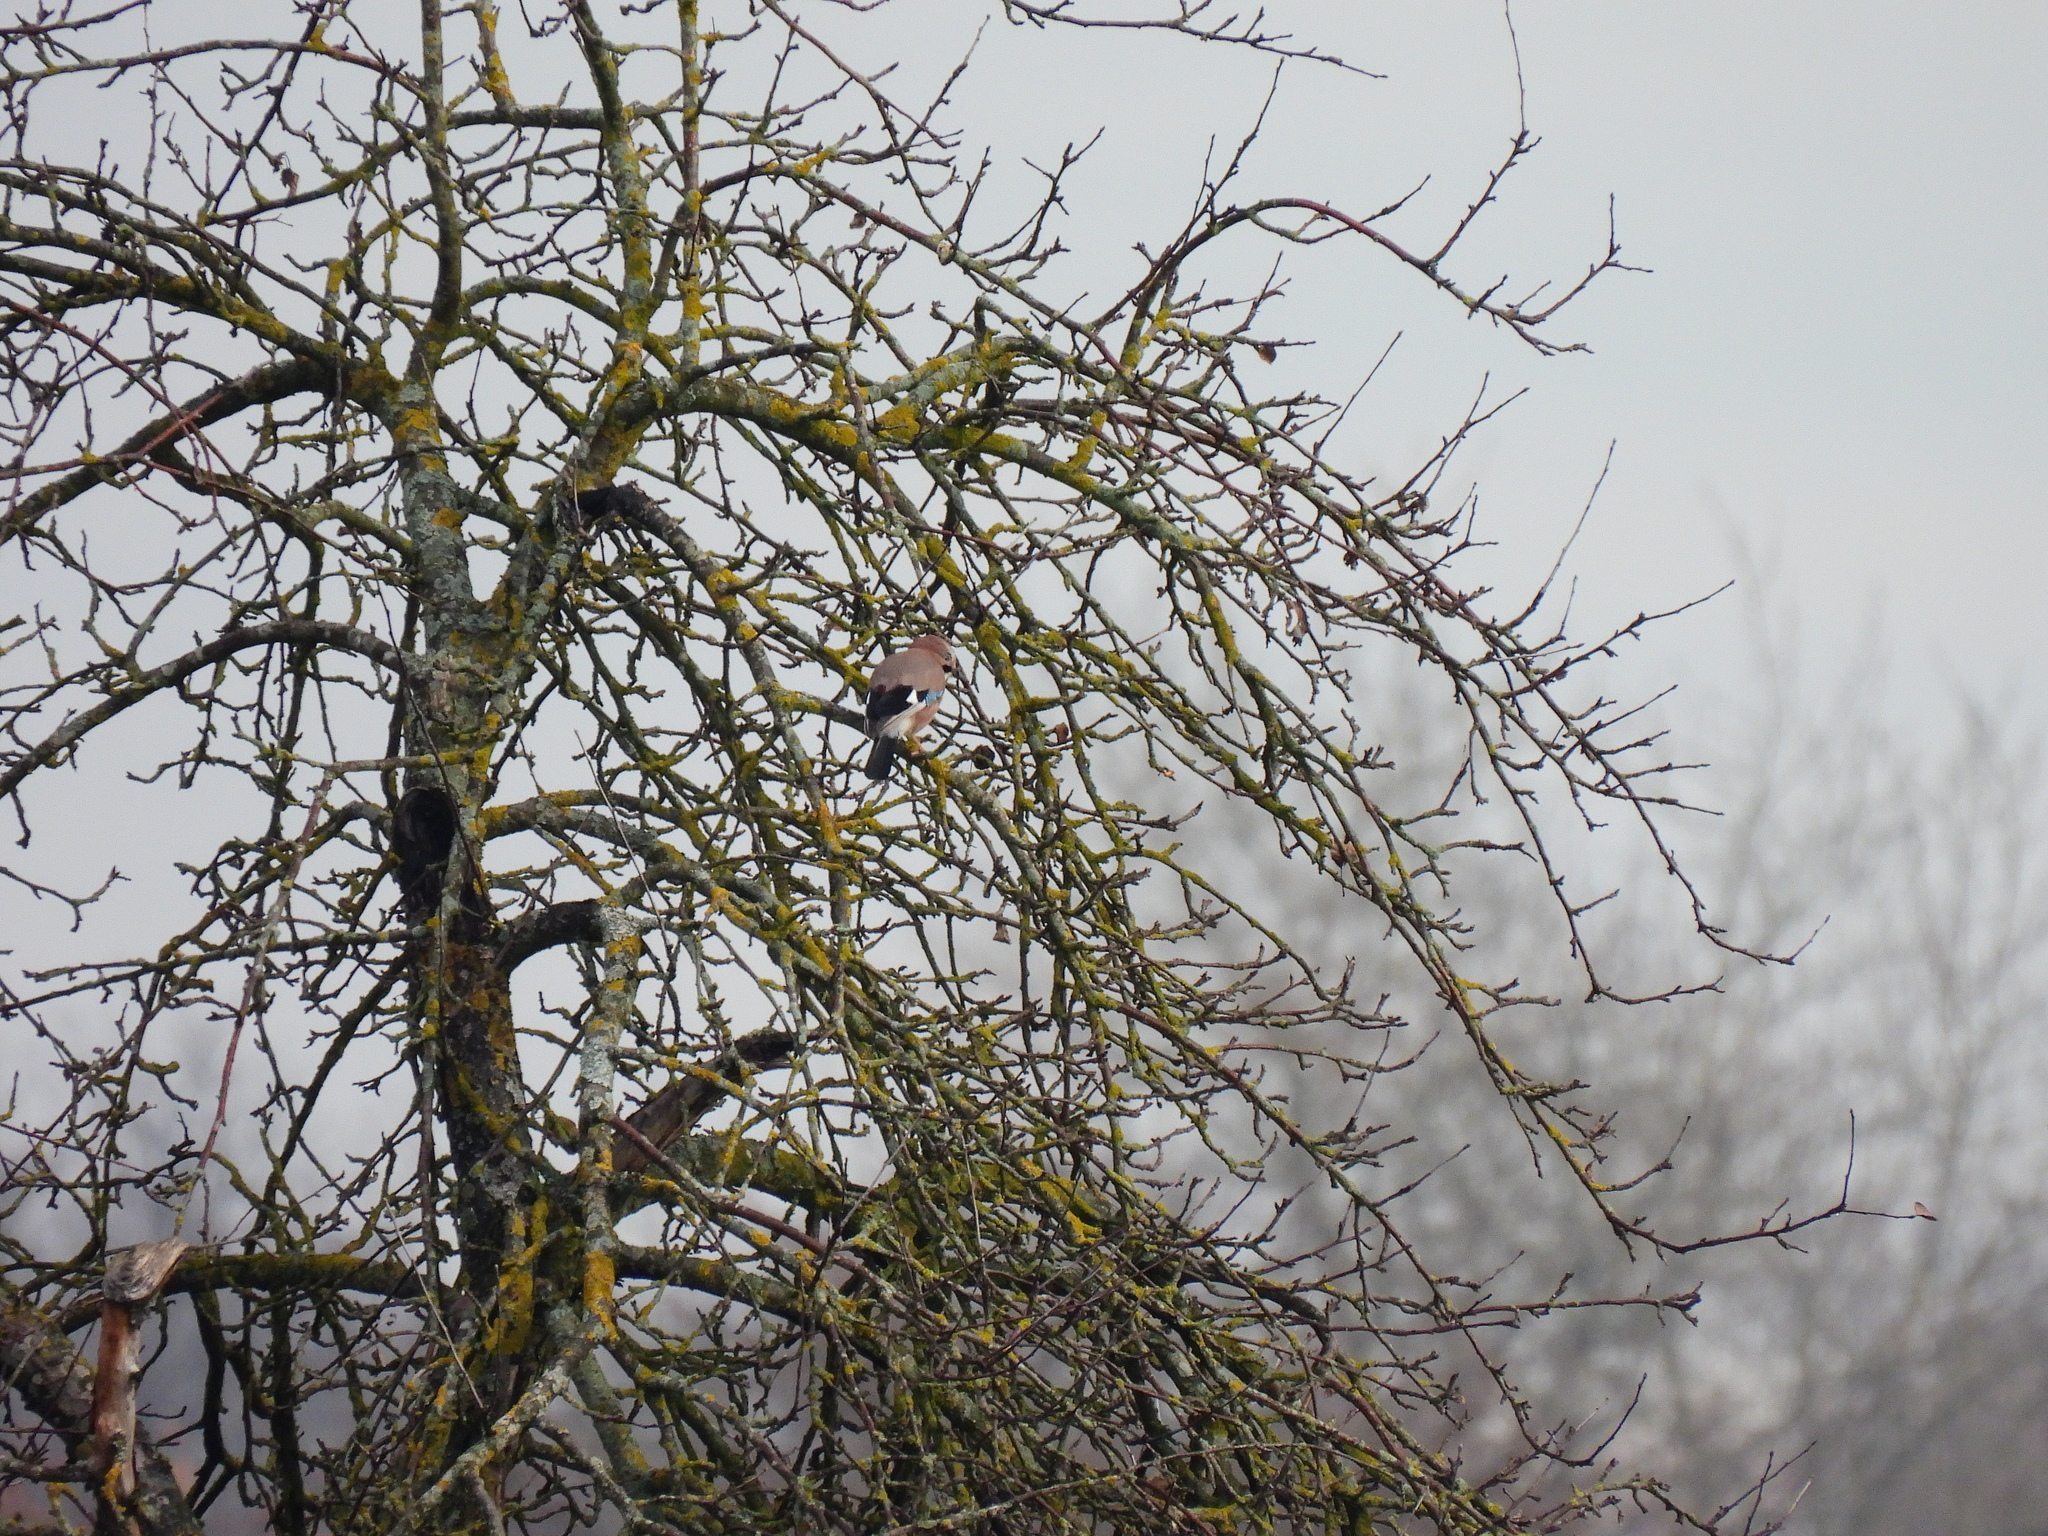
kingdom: Animalia
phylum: Chordata
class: Aves
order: Passeriformes
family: Corvidae
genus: Garrulus
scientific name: Garrulus glandarius
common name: Eurasian jay
